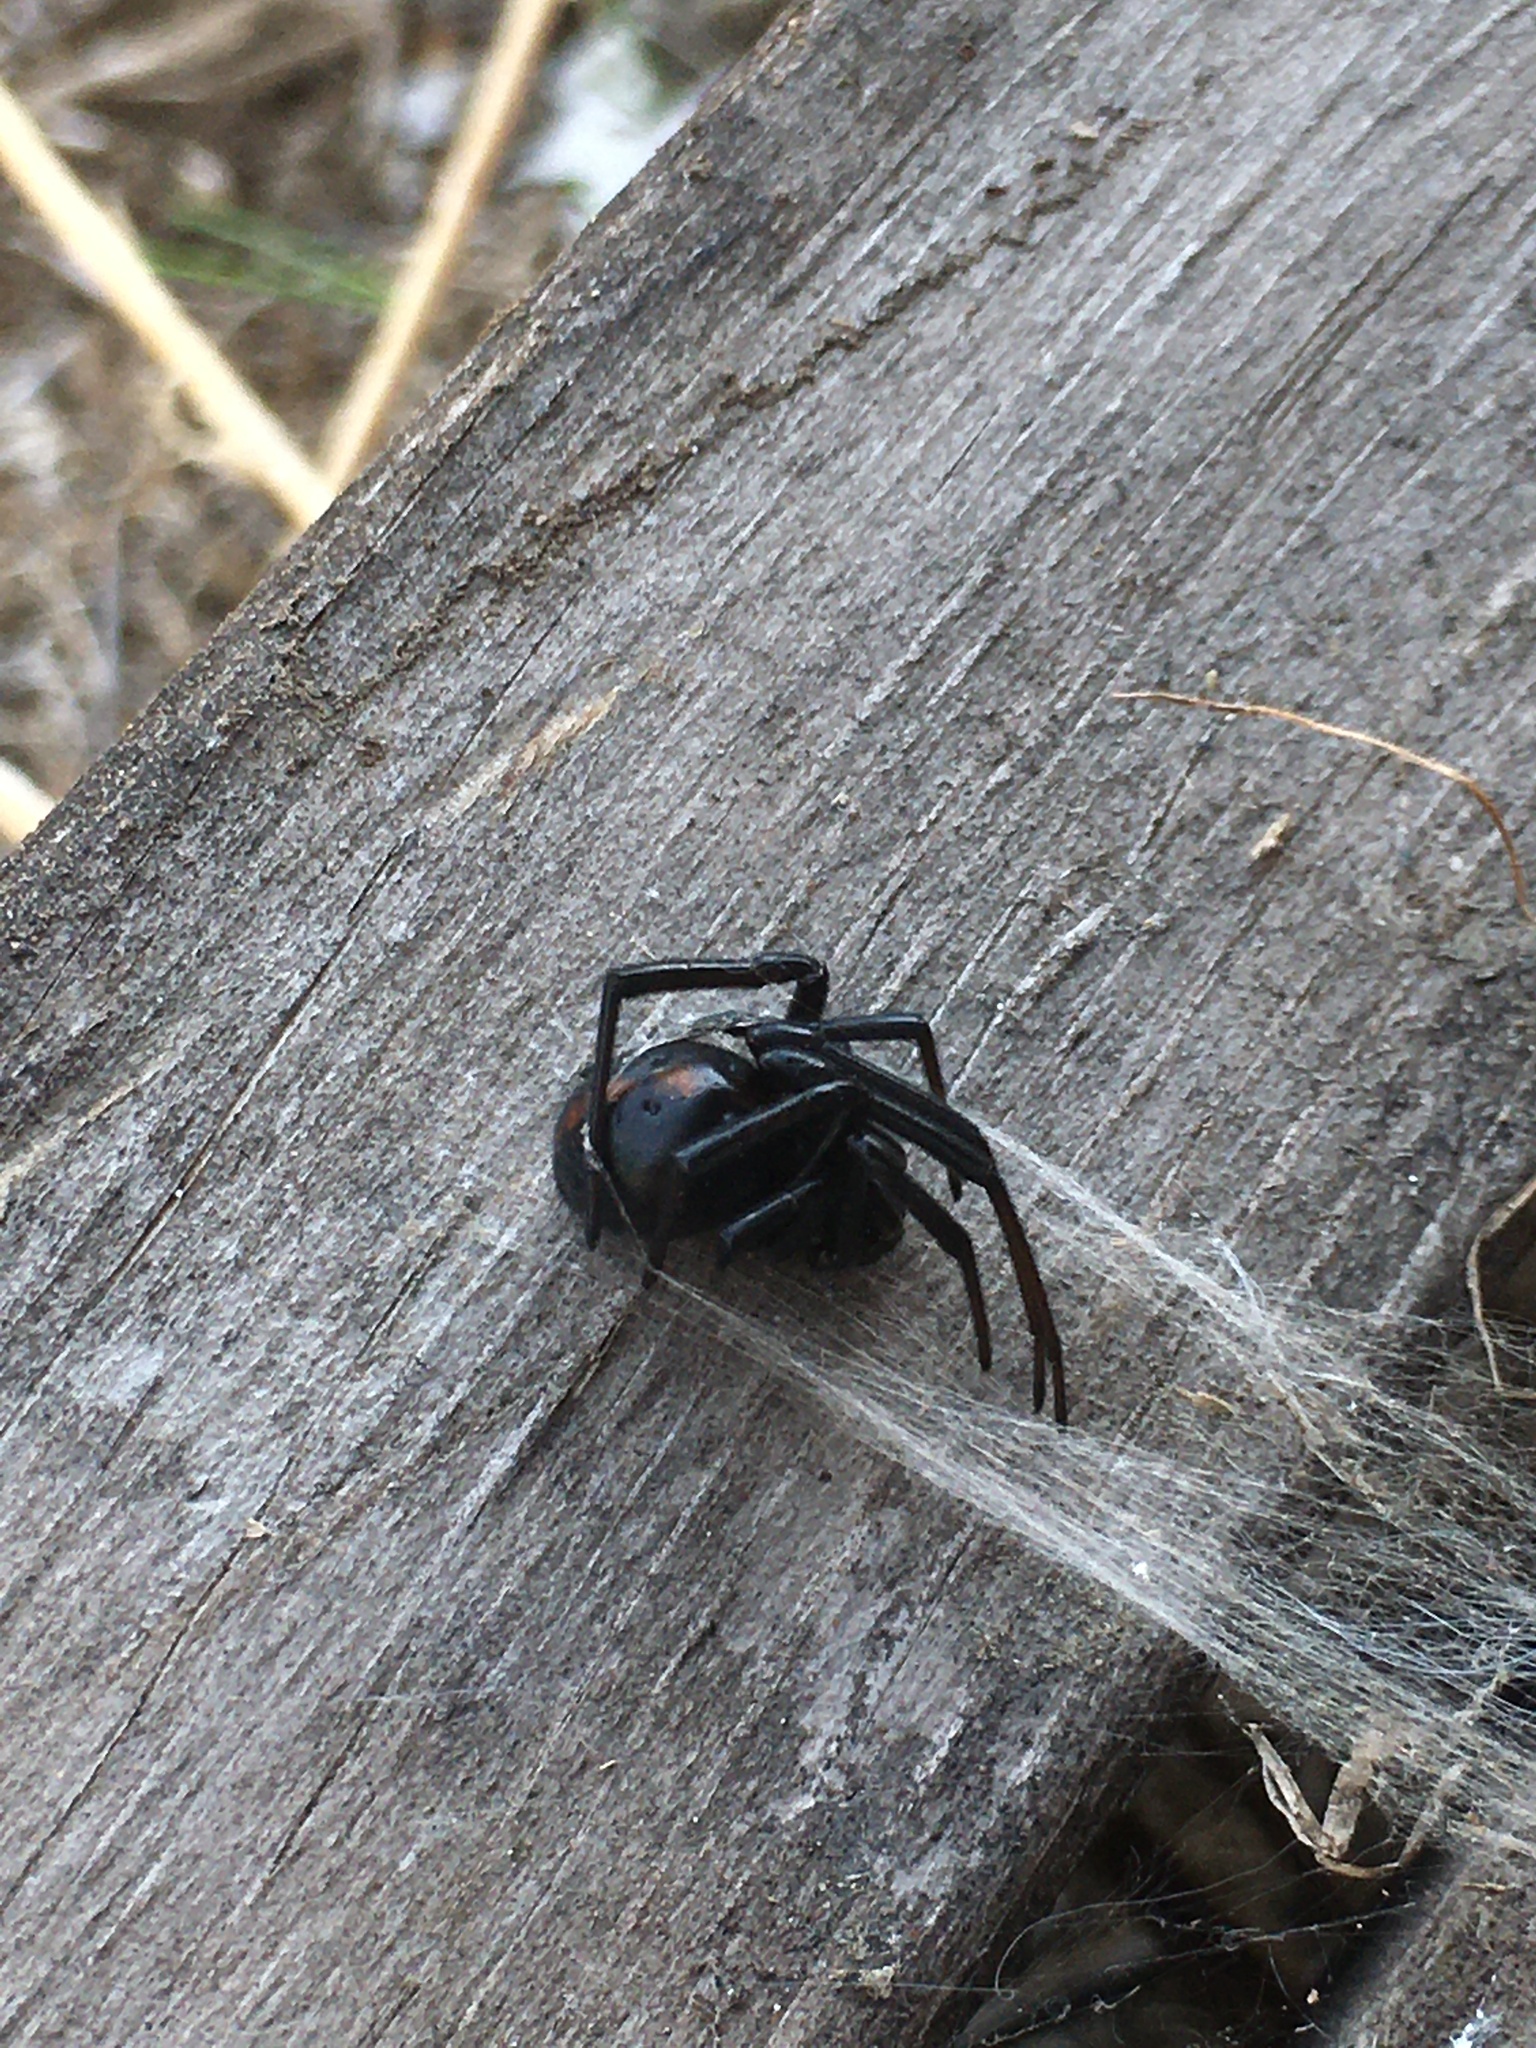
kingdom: Animalia
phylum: Arthropoda
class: Arachnida
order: Araneae
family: Theridiidae
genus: Latrodectus
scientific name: Latrodectus hesperus
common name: Western black widow
